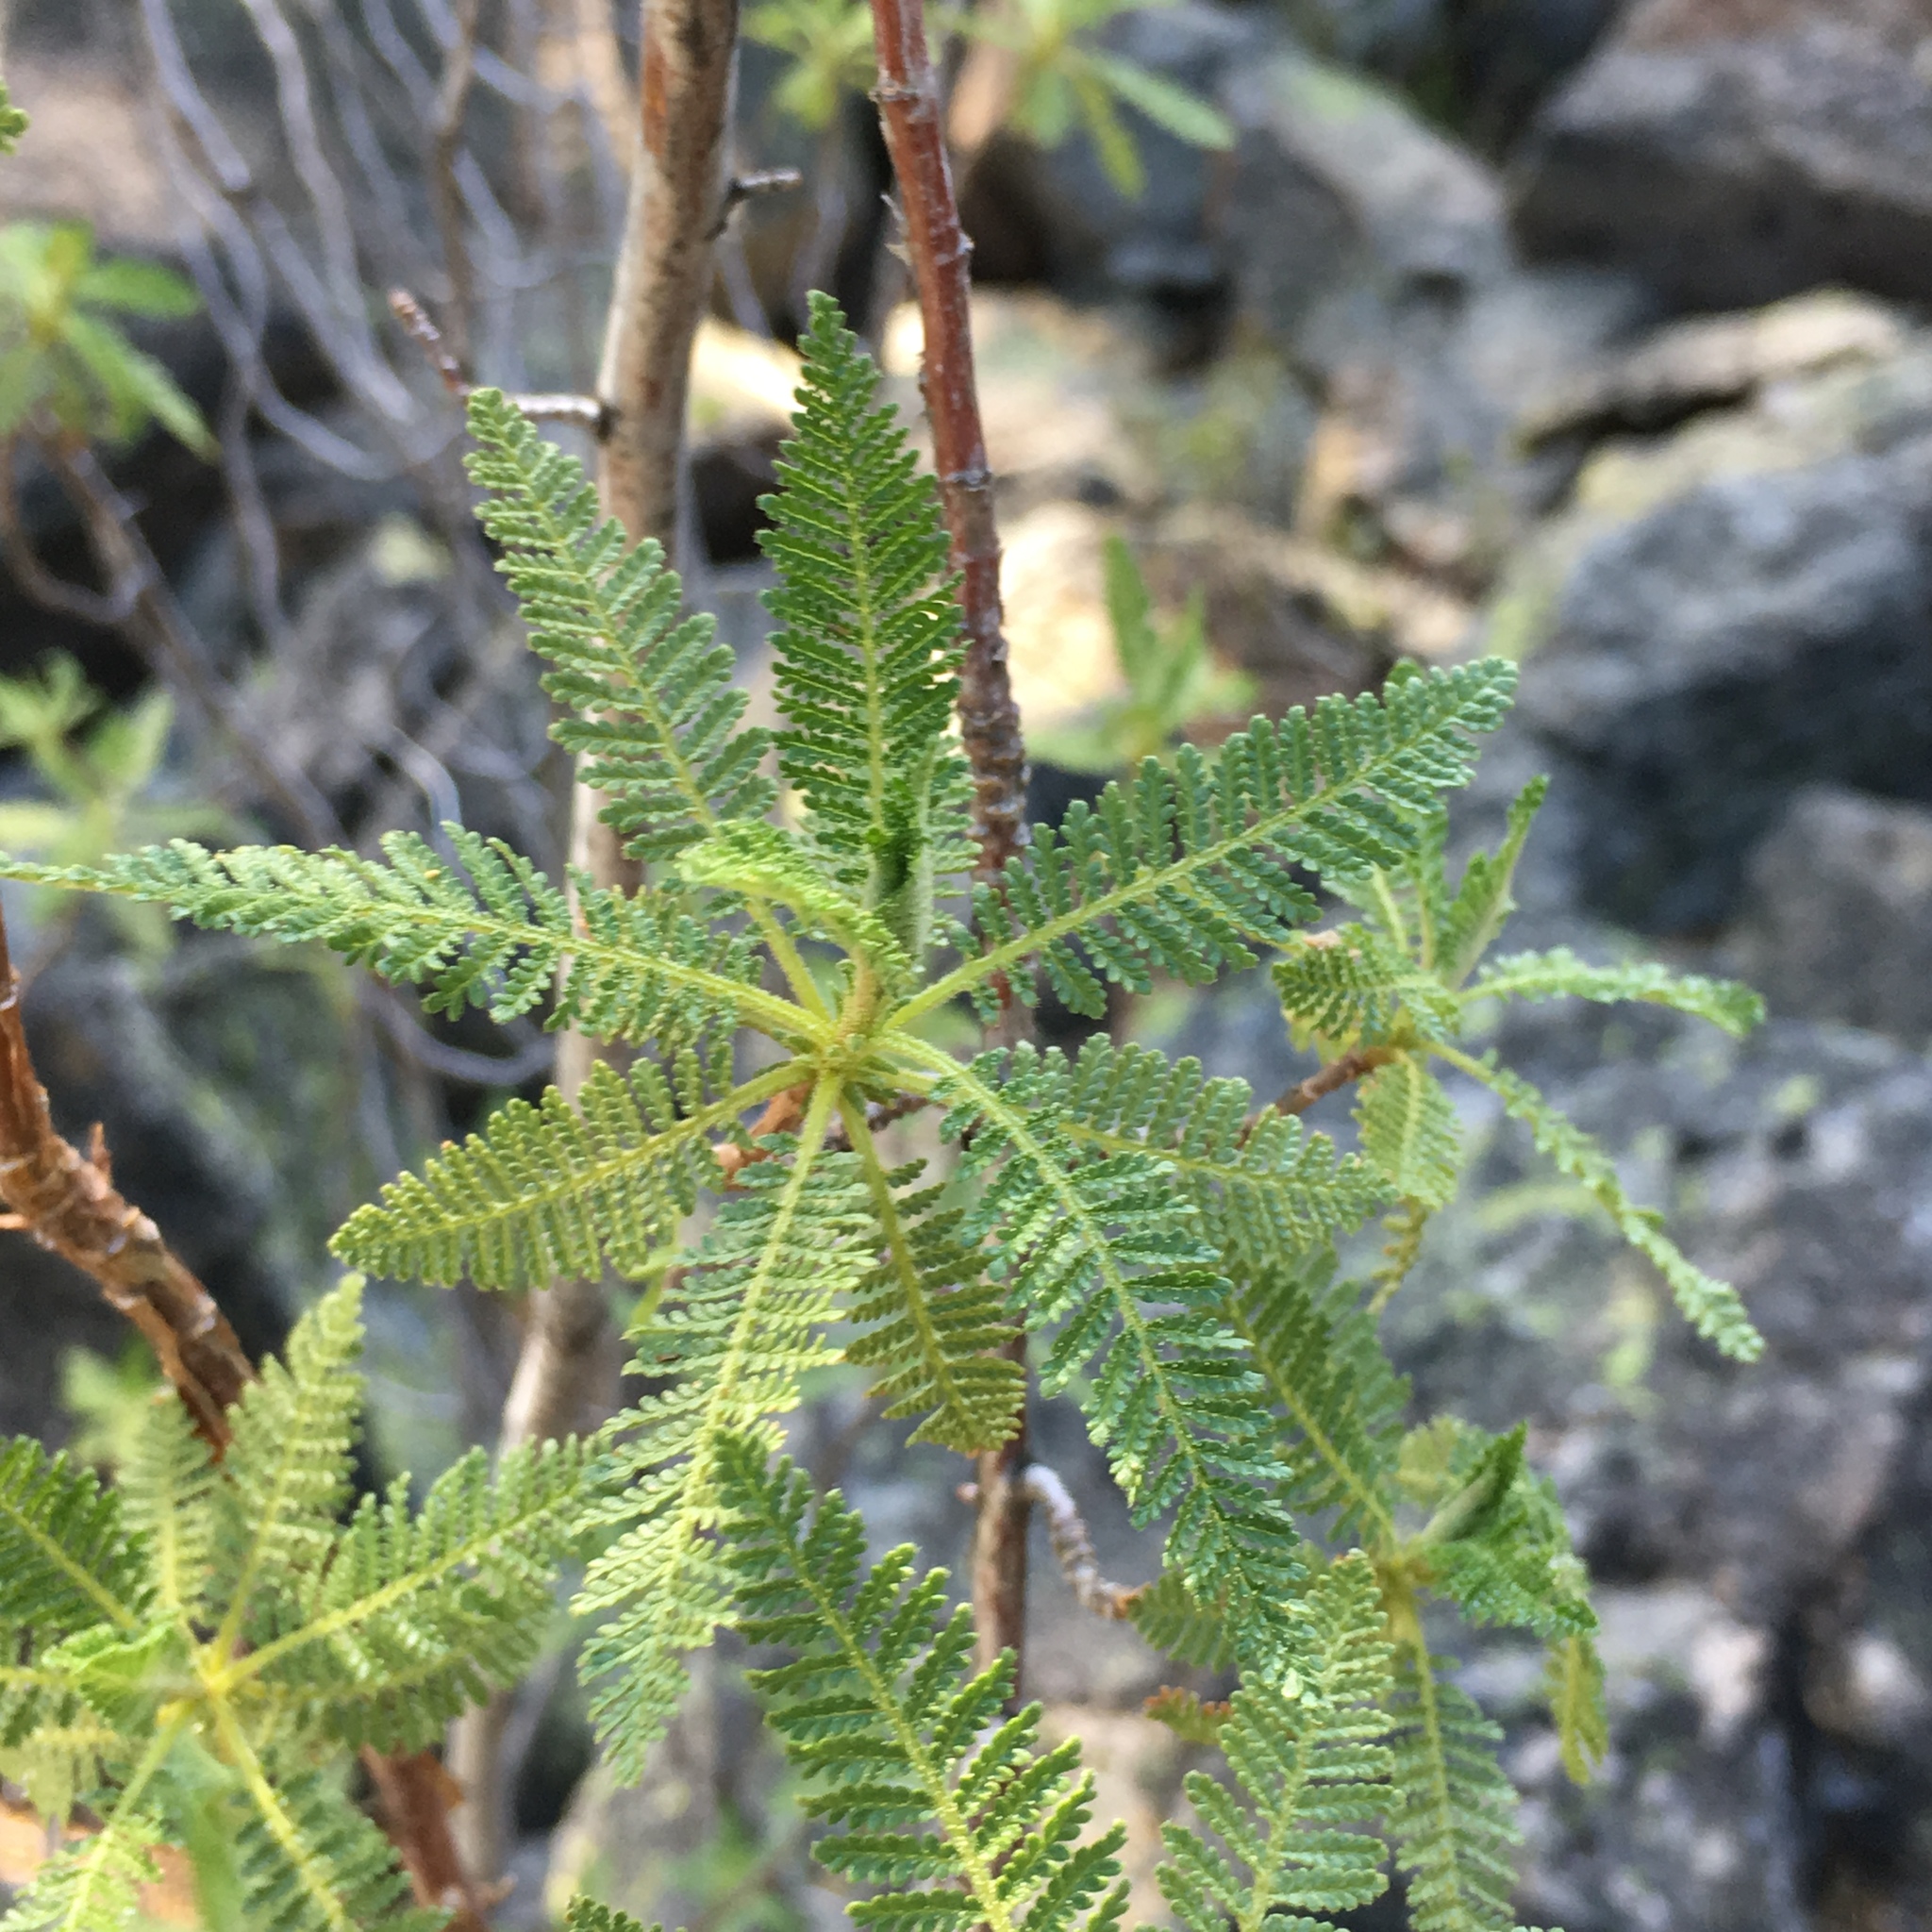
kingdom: Plantae
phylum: Tracheophyta
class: Magnoliopsida
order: Rosales
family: Rosaceae
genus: Chamaebatiaria
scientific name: Chamaebatiaria millefolium
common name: Fernbush
